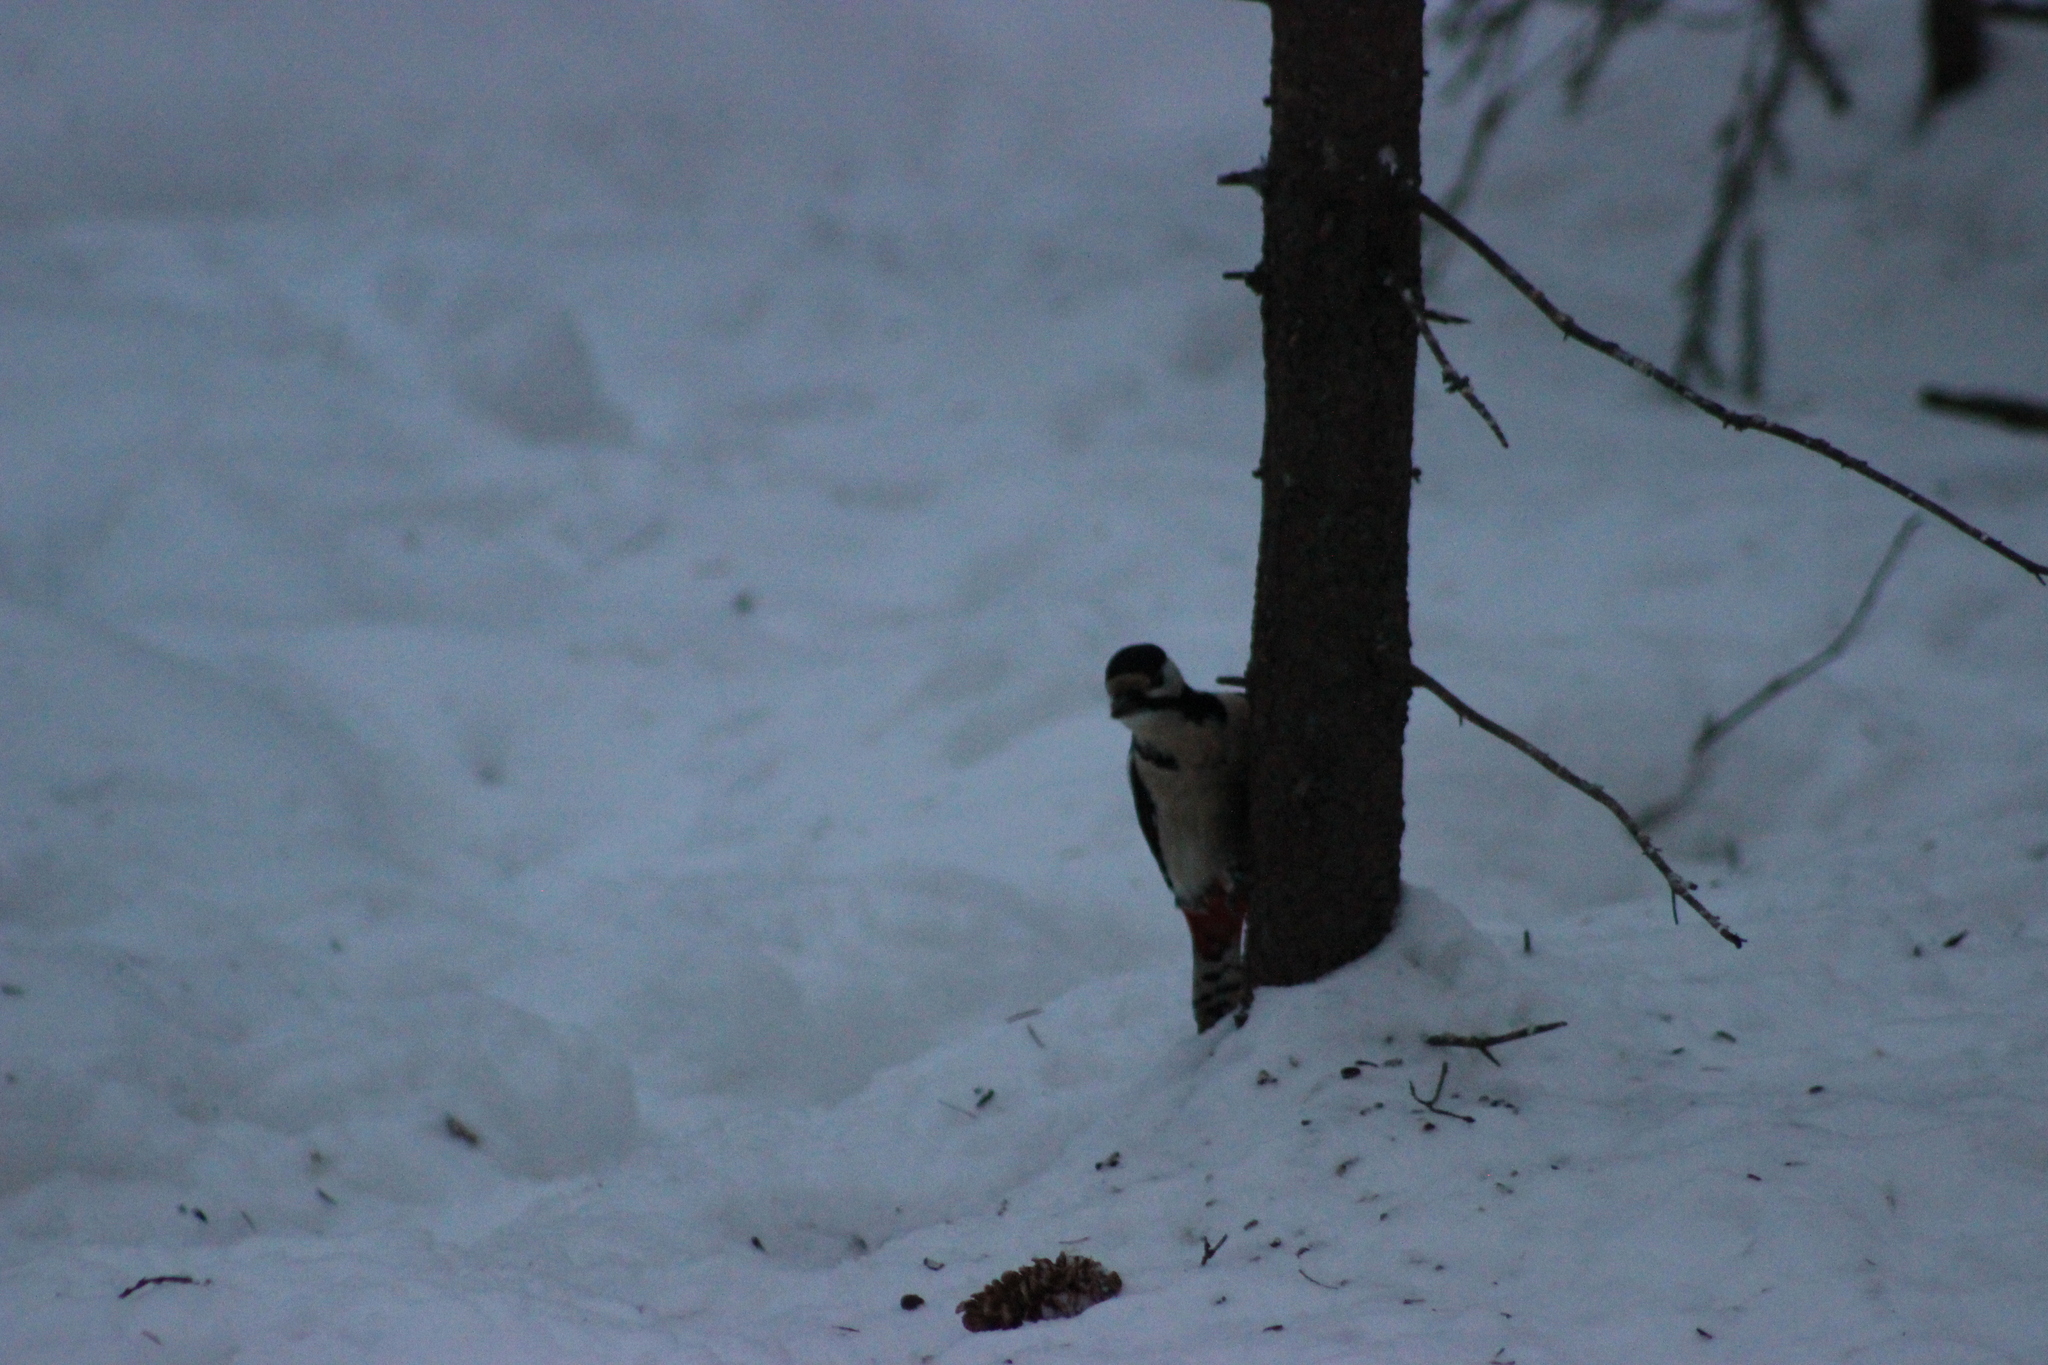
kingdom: Animalia
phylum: Chordata
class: Aves
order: Piciformes
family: Picidae
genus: Dendrocopos
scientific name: Dendrocopos major
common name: Great spotted woodpecker
